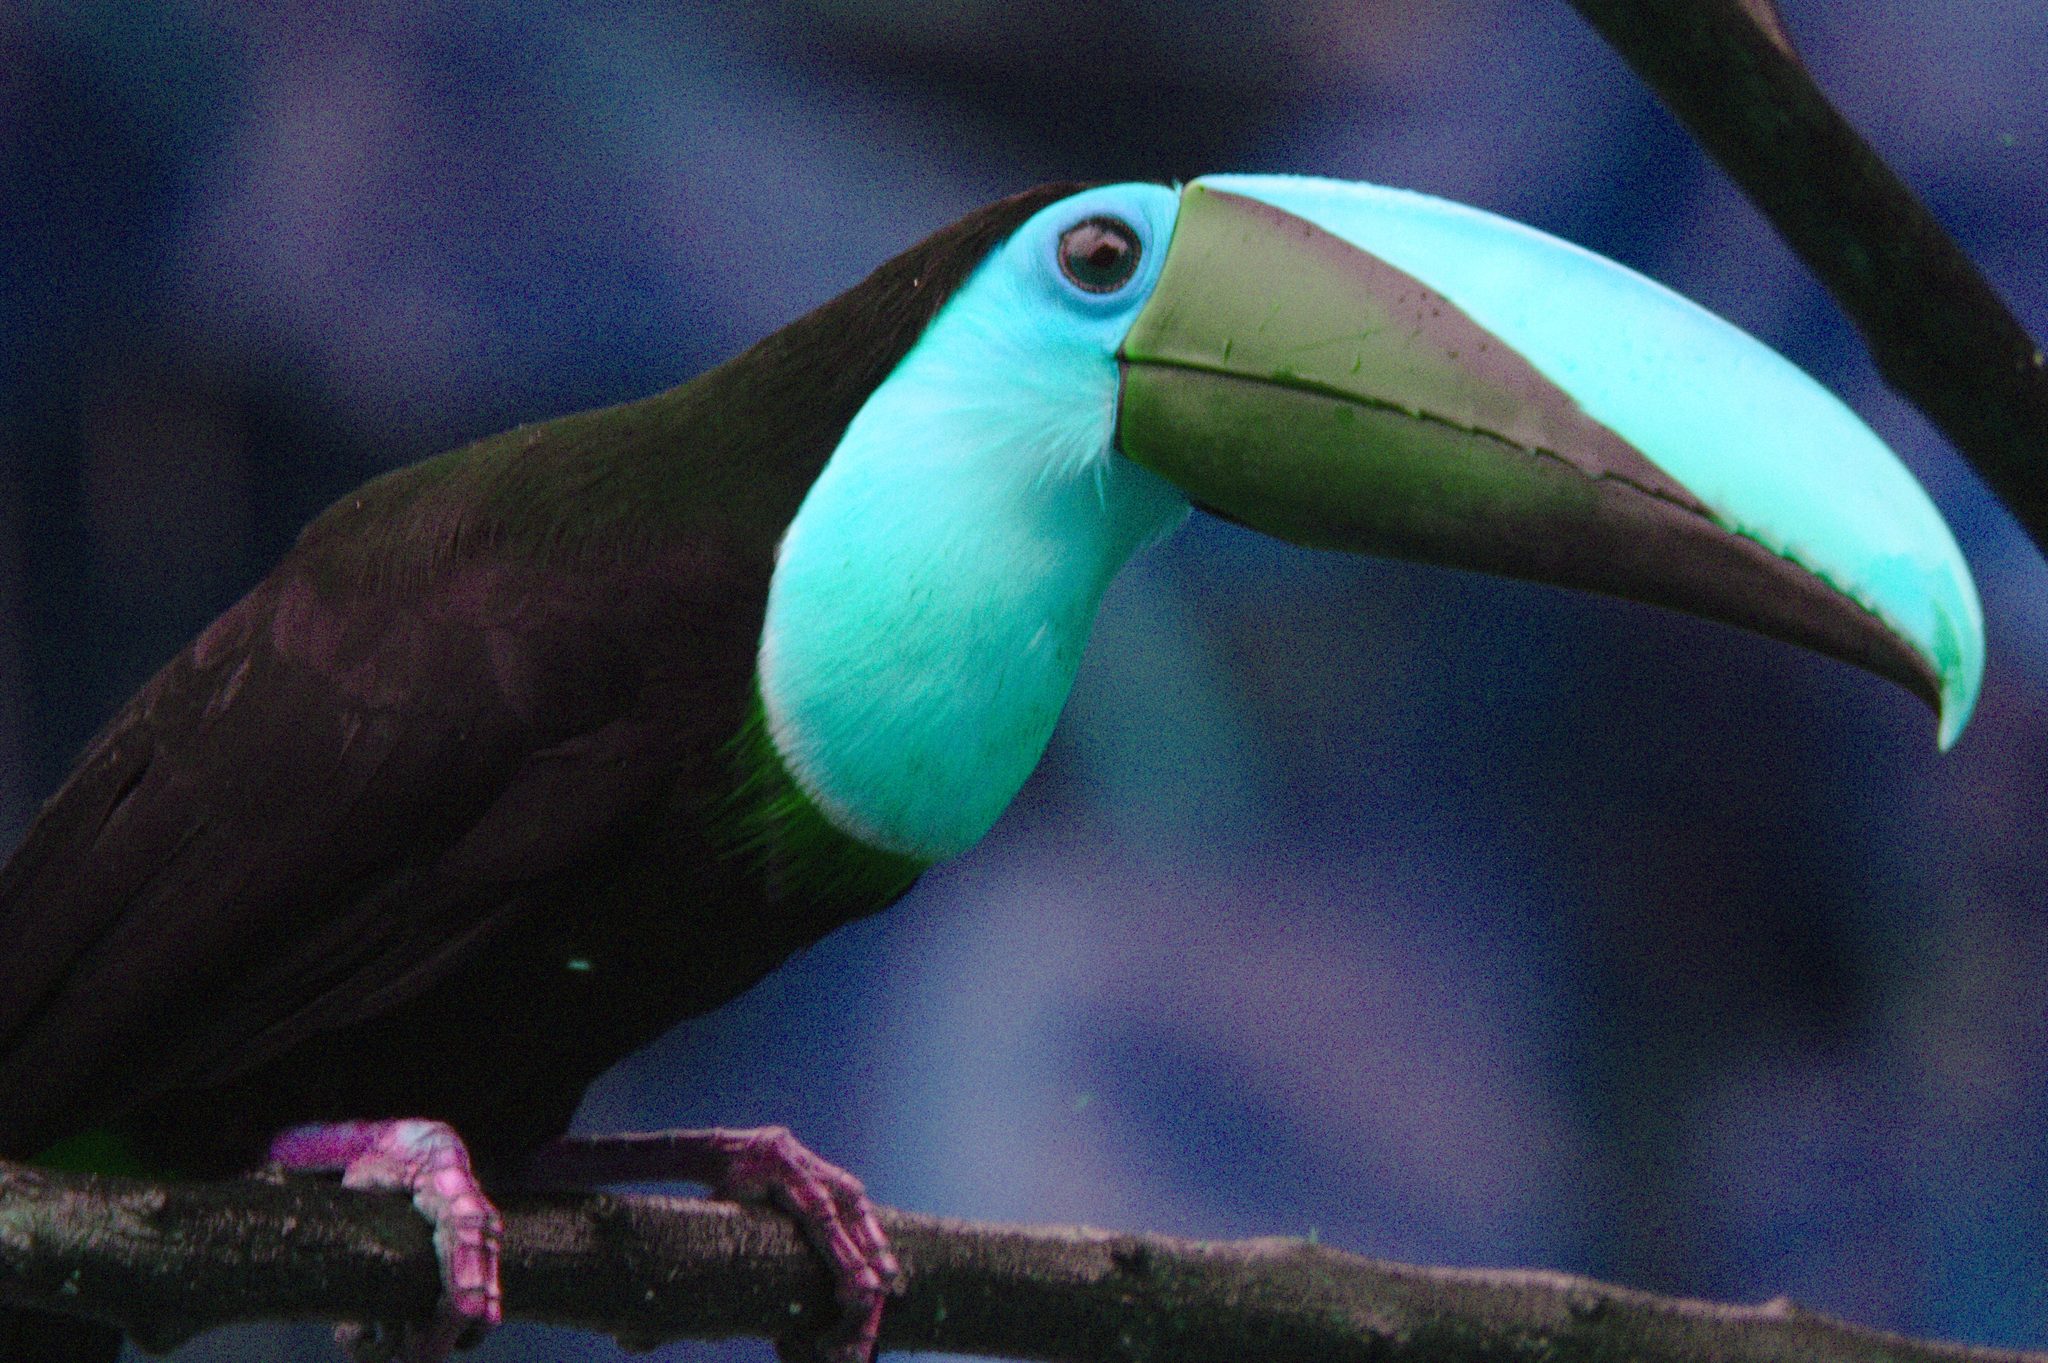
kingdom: Animalia
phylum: Chordata
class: Aves
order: Piciformes
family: Ramphastidae
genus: Ramphastos
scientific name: Ramphastos ambiguus
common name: Yellow-throated toucan
